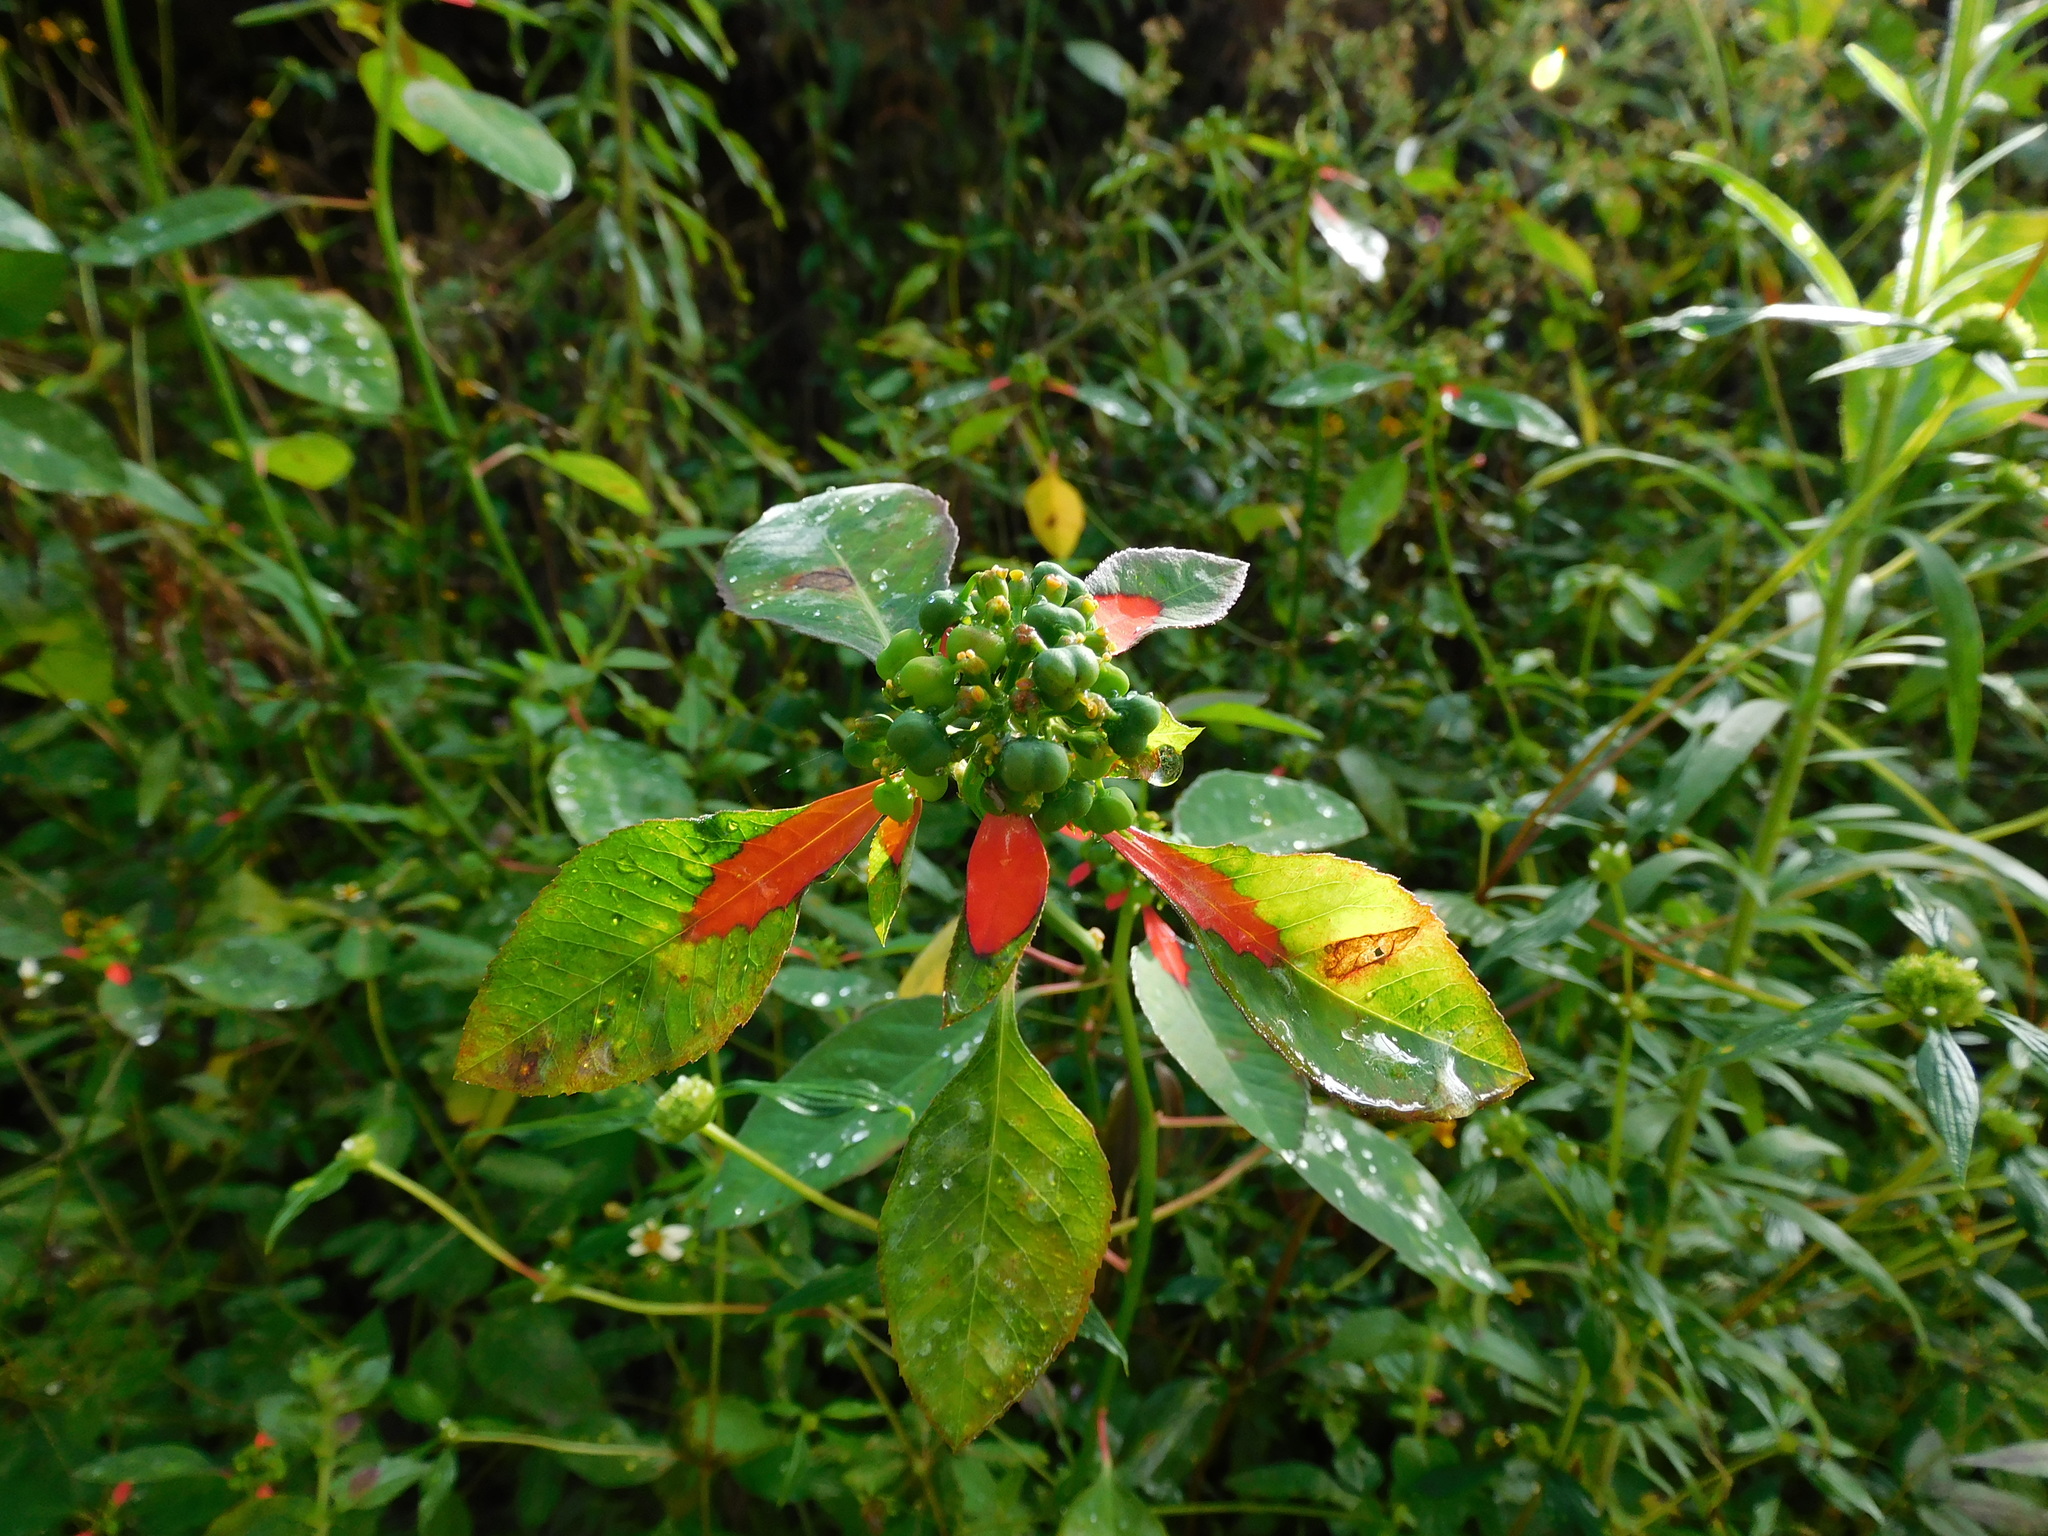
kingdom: Plantae
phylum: Tracheophyta
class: Magnoliopsida
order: Malpighiales
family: Euphorbiaceae
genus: Euphorbia
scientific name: Euphorbia heterophylla
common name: Mexican fireplant
